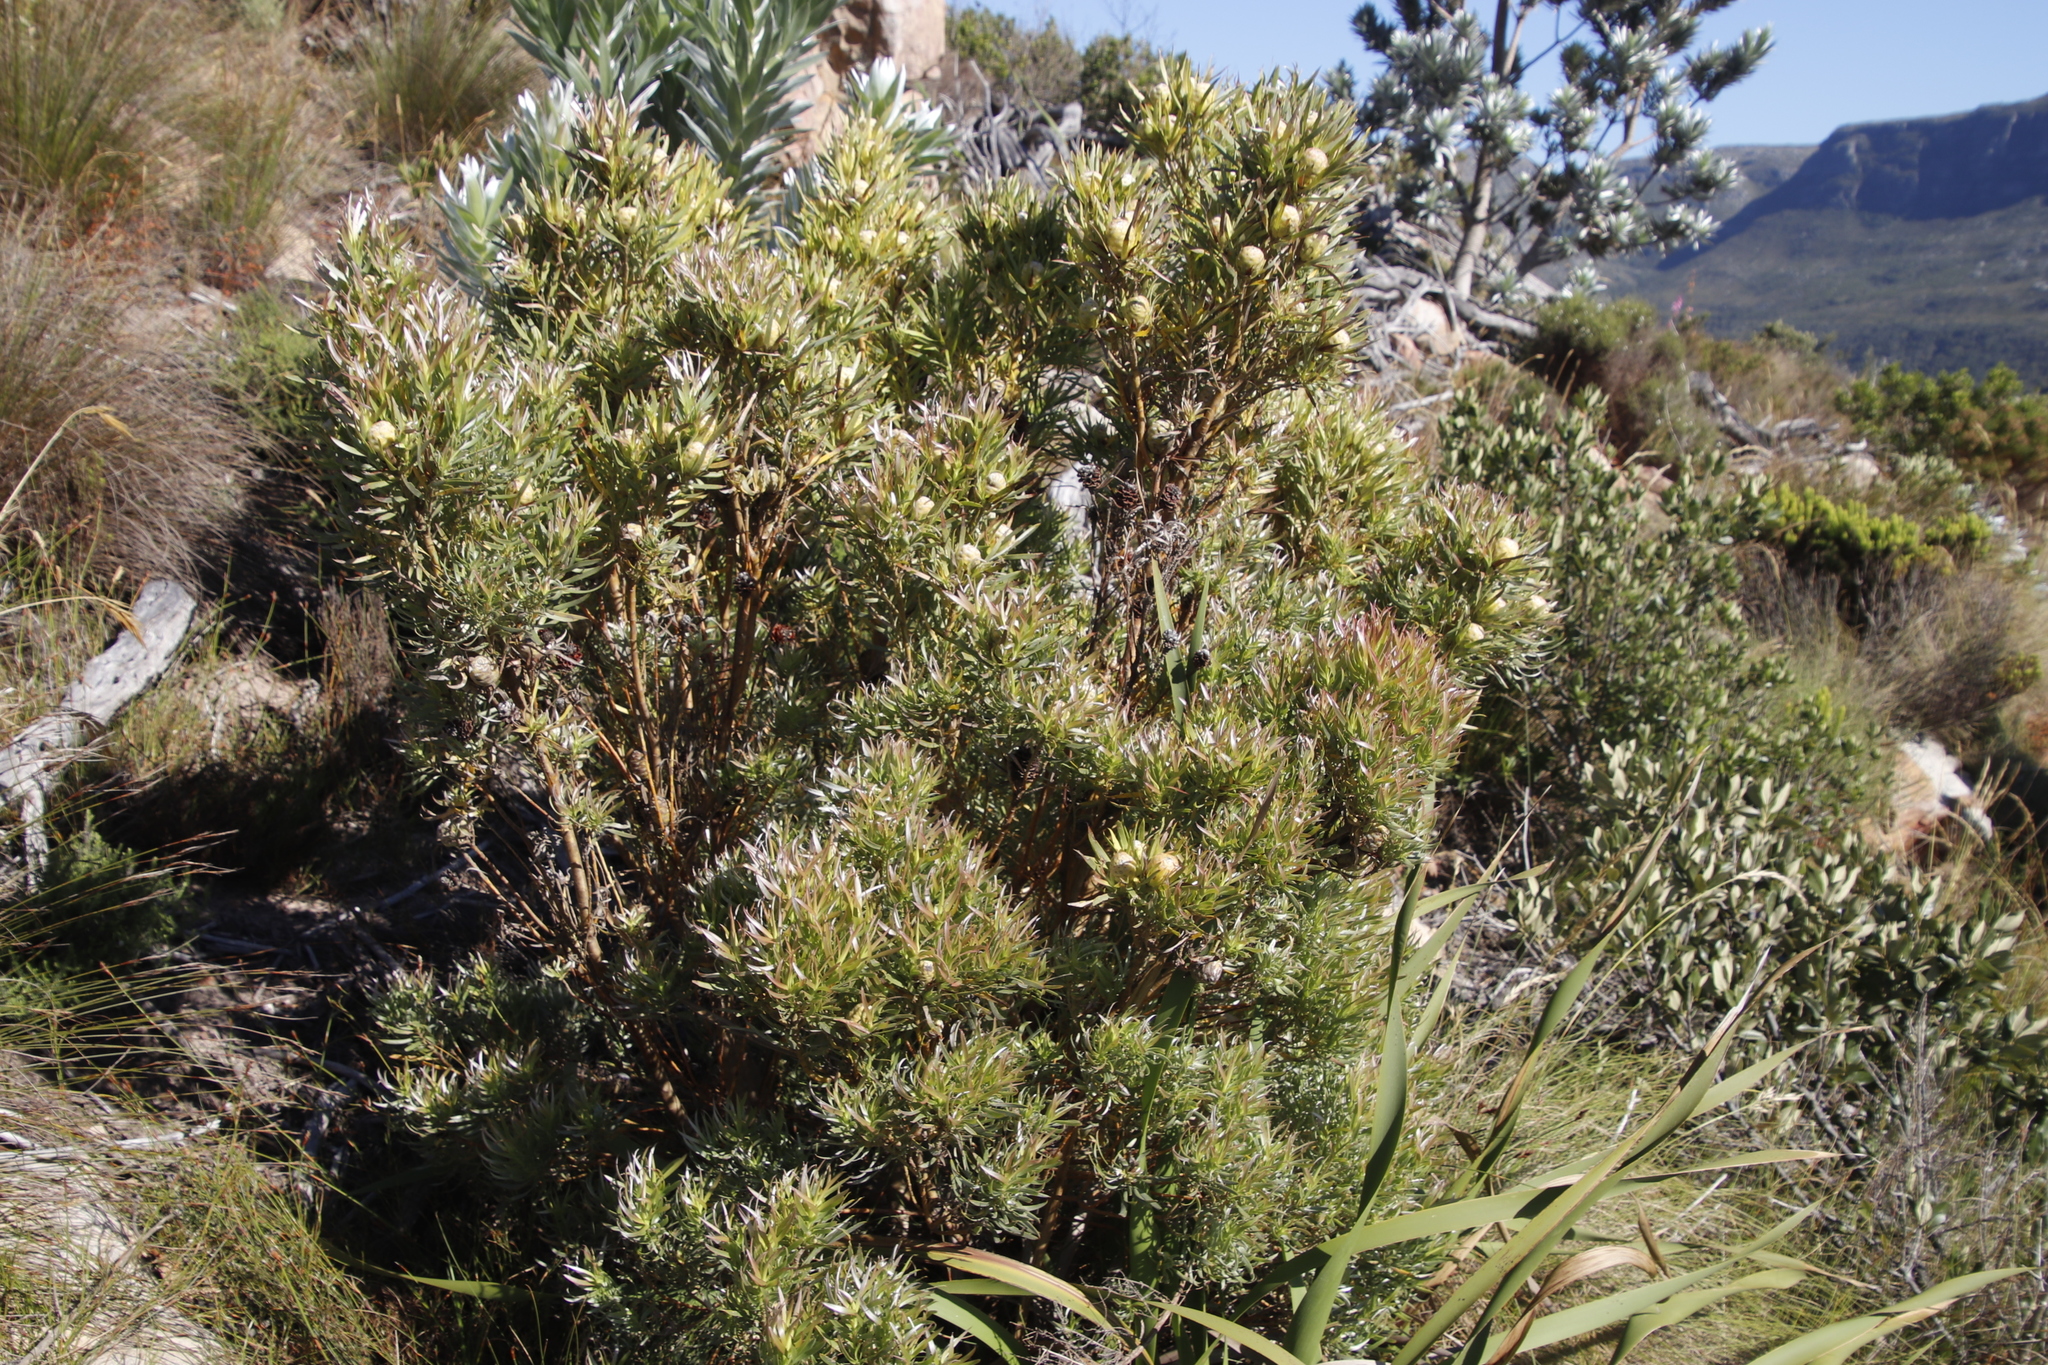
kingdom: Plantae
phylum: Tracheophyta
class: Magnoliopsida
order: Proteales
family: Proteaceae
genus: Leucadendron
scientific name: Leucadendron xanthoconus
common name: Sickle-leaf conebush
